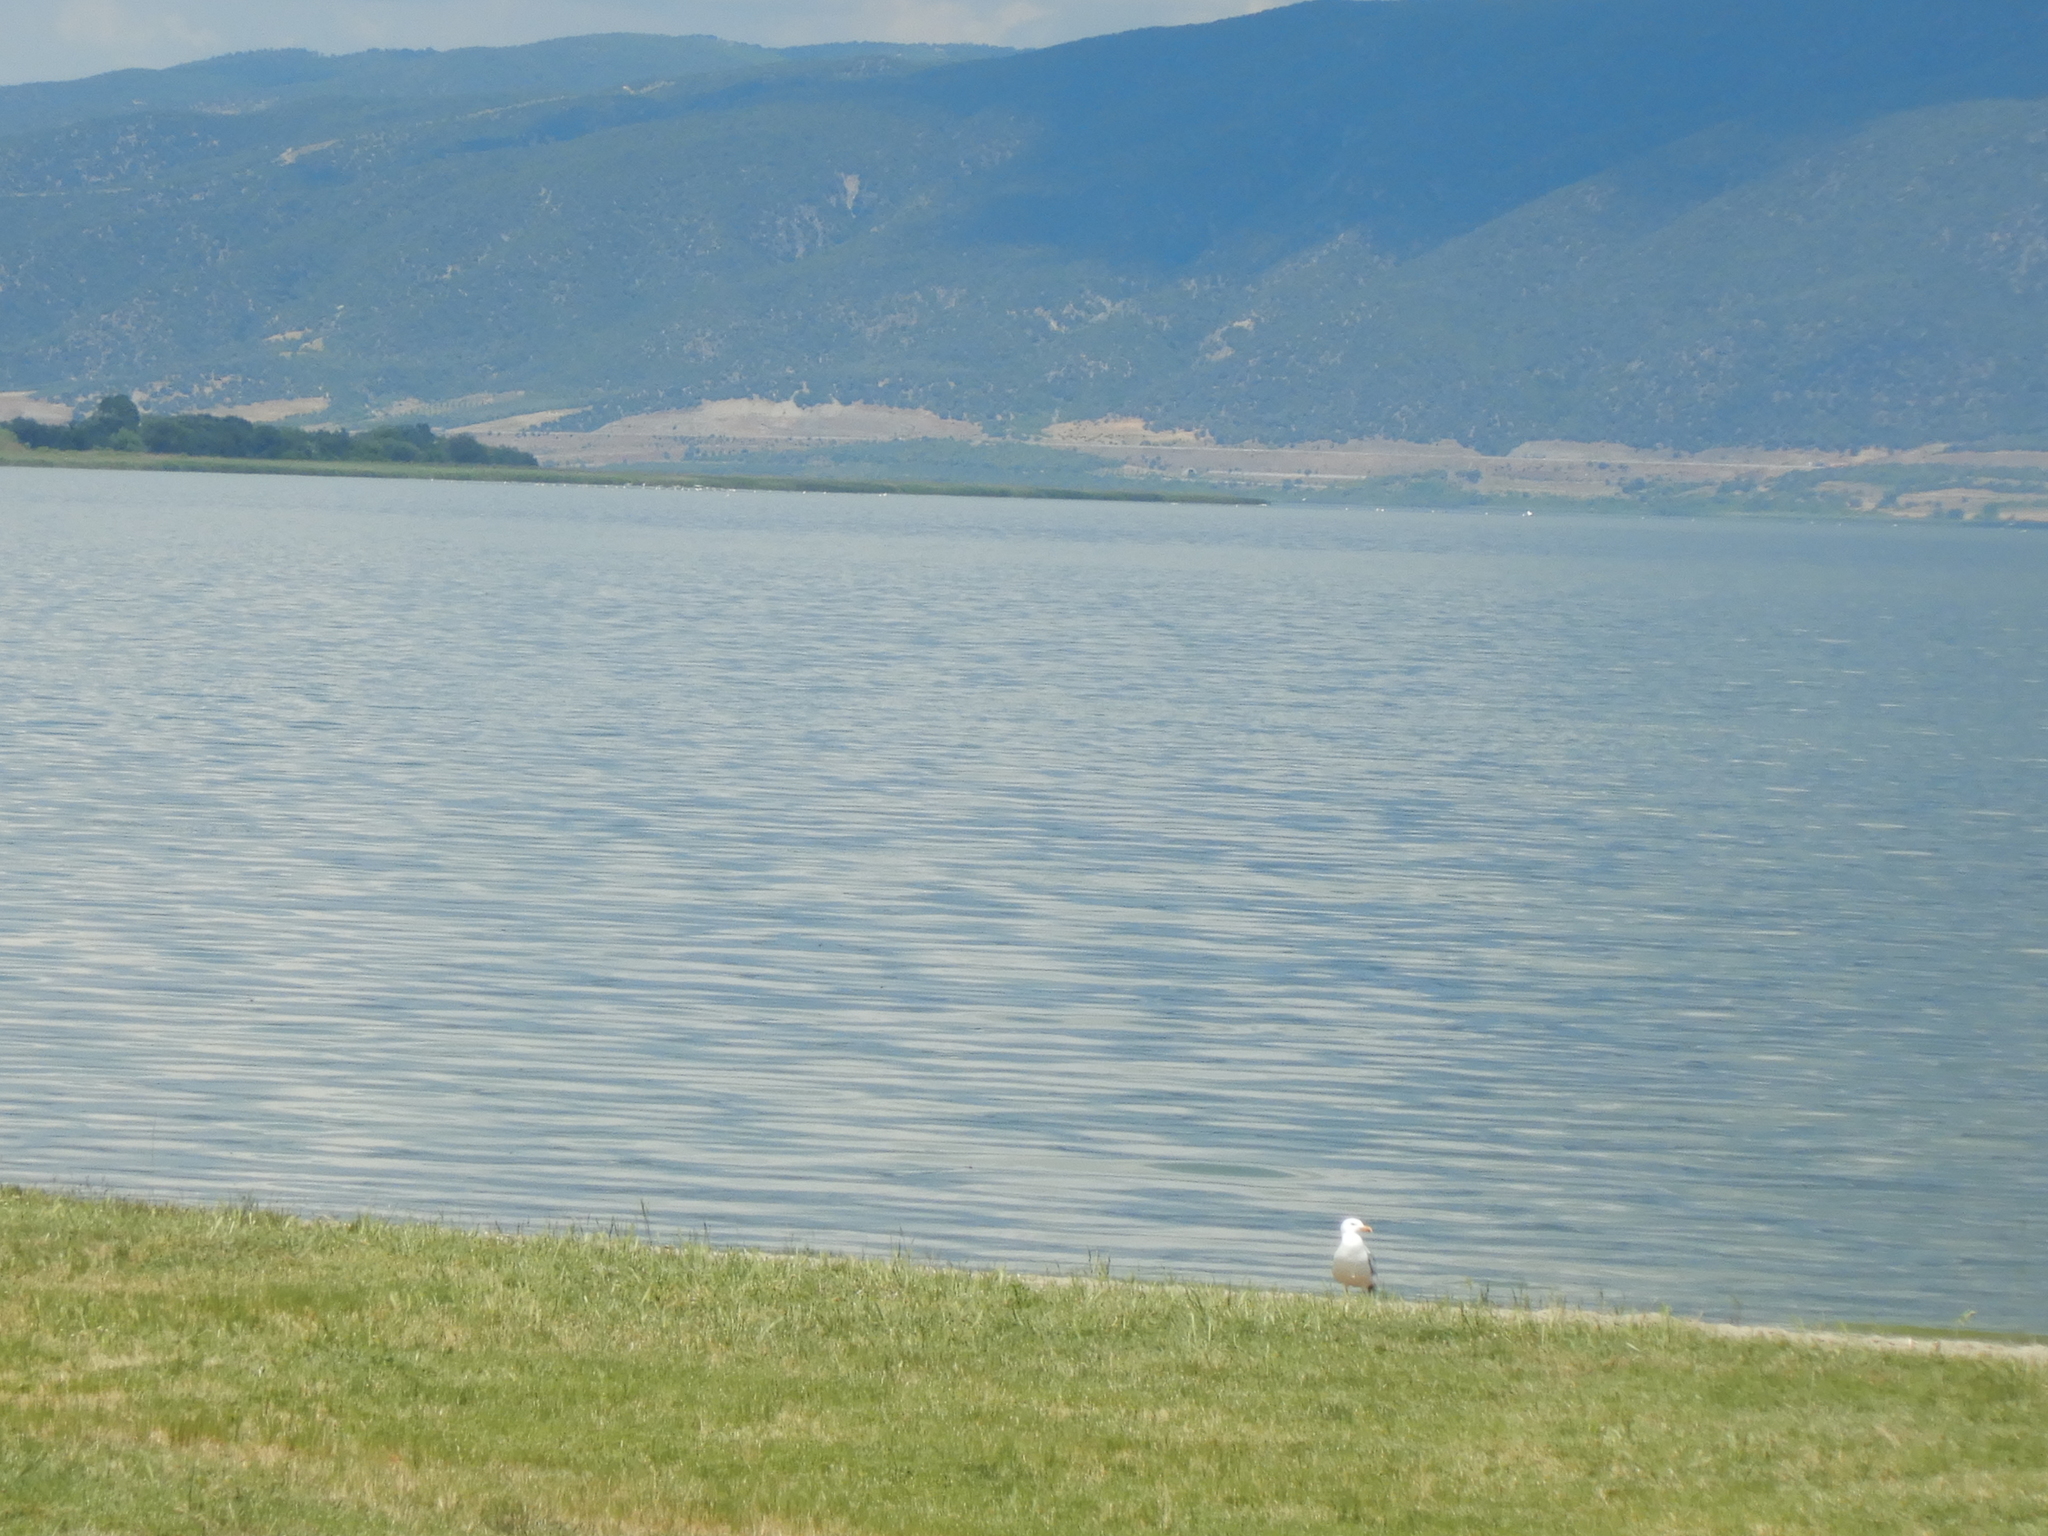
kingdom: Animalia
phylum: Chordata
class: Aves
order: Charadriiformes
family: Laridae
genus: Larus
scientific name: Larus michahellis
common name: Yellow-legged gull
